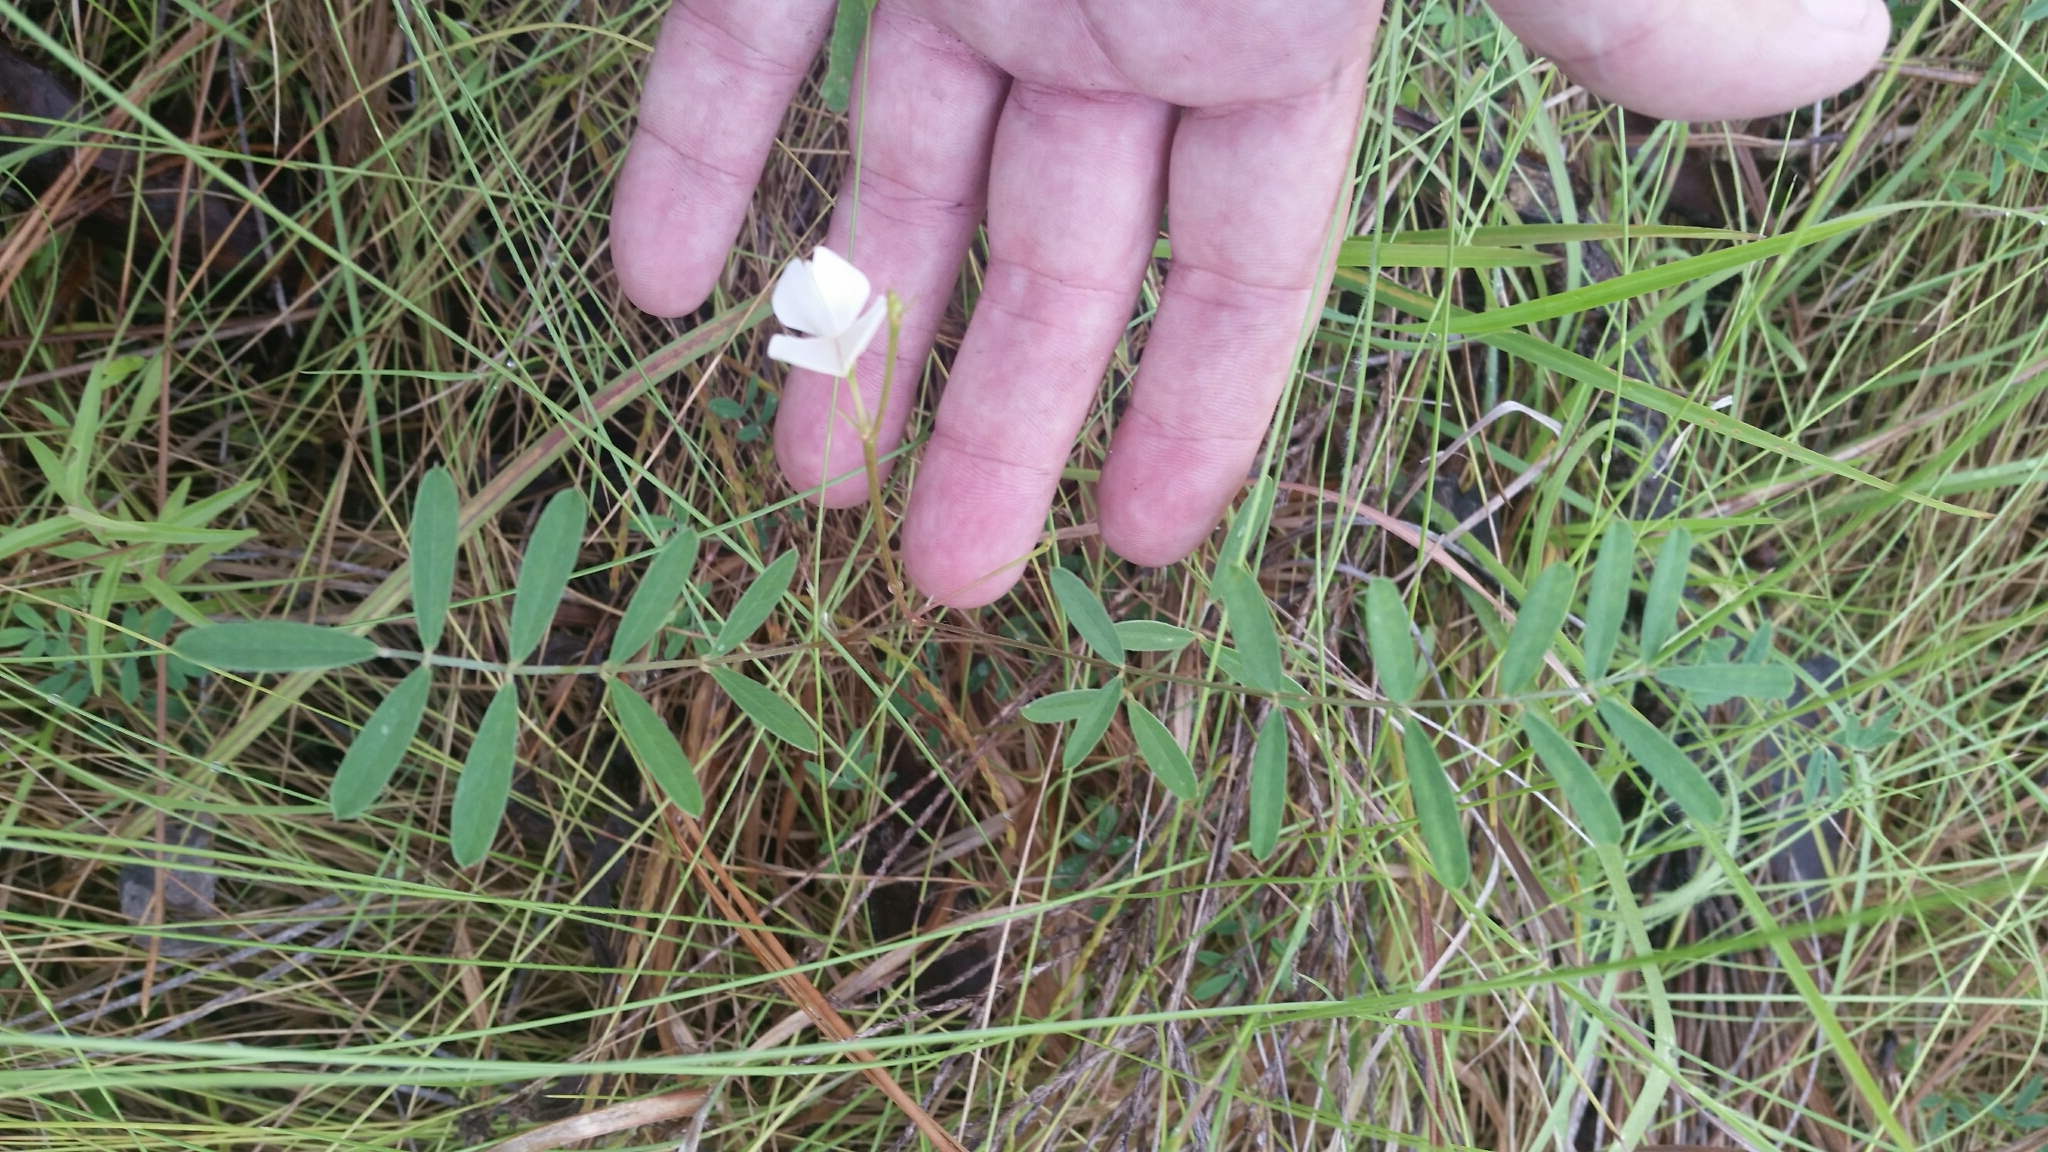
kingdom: Plantae
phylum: Tracheophyta
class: Magnoliopsida
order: Fabales
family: Fabaceae
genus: Tephrosia
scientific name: Tephrosia florida
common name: Florida hoary-pea
